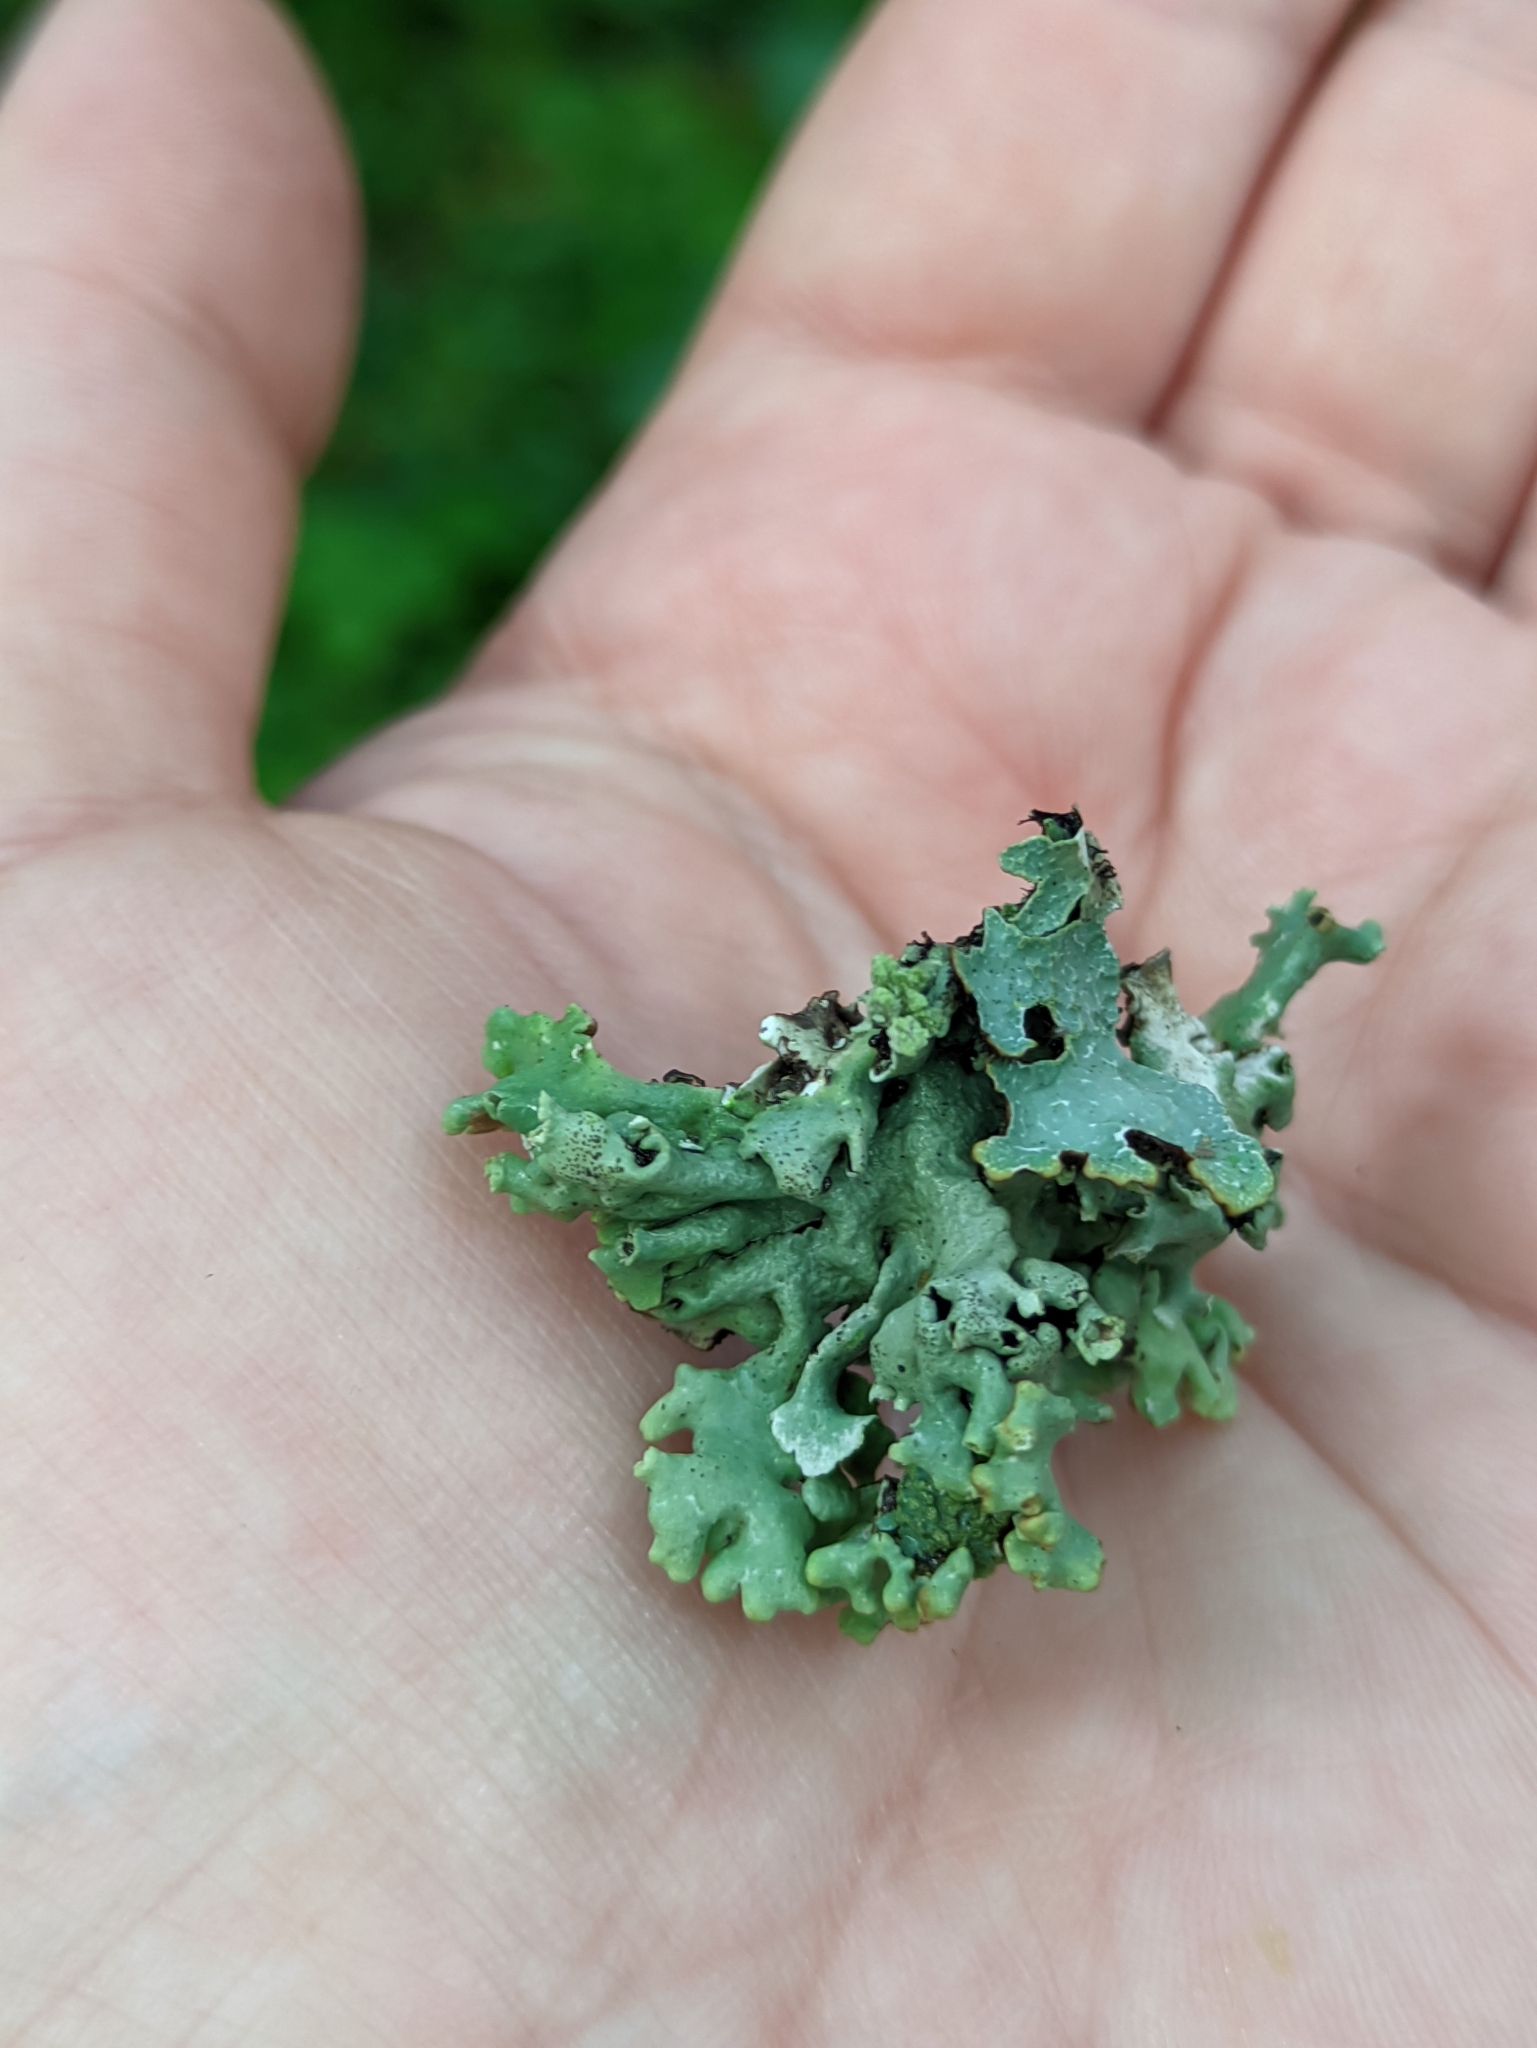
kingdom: Fungi
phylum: Ascomycota
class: Lecanoromycetes
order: Lecanorales
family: Parmeliaceae
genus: Hypogymnia
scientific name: Hypogymnia physodes
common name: Dark crottle
